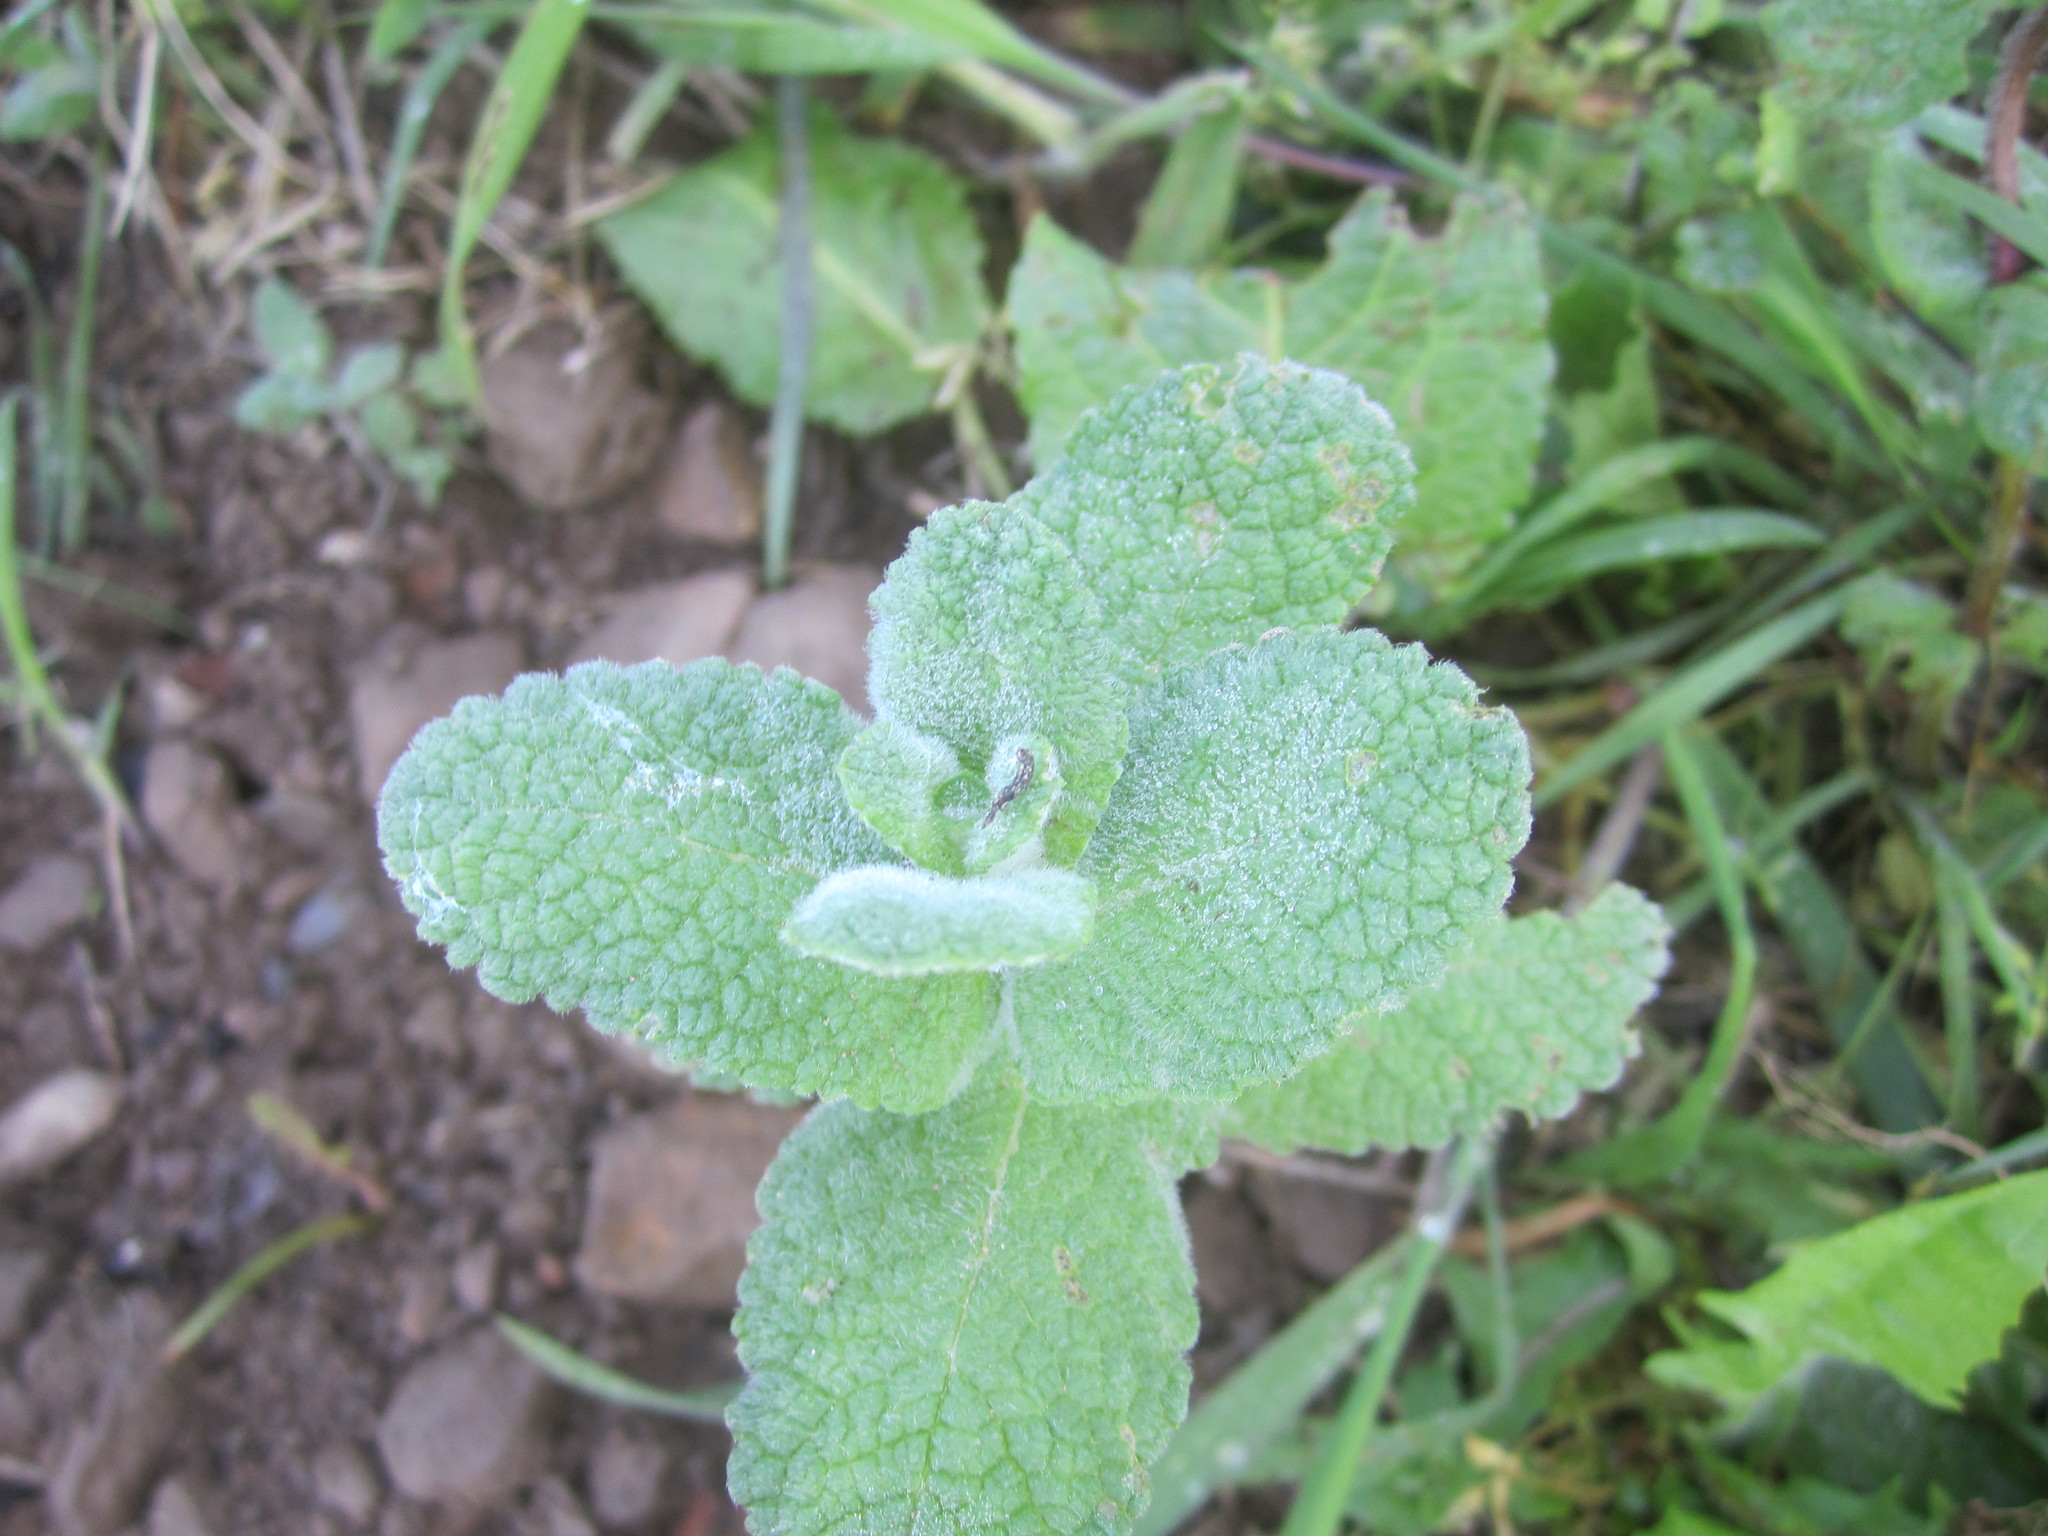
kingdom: Plantae
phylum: Tracheophyta
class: Magnoliopsida
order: Lamiales
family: Lamiaceae
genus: Mentha
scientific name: Mentha suaveolens
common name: Apple mint
